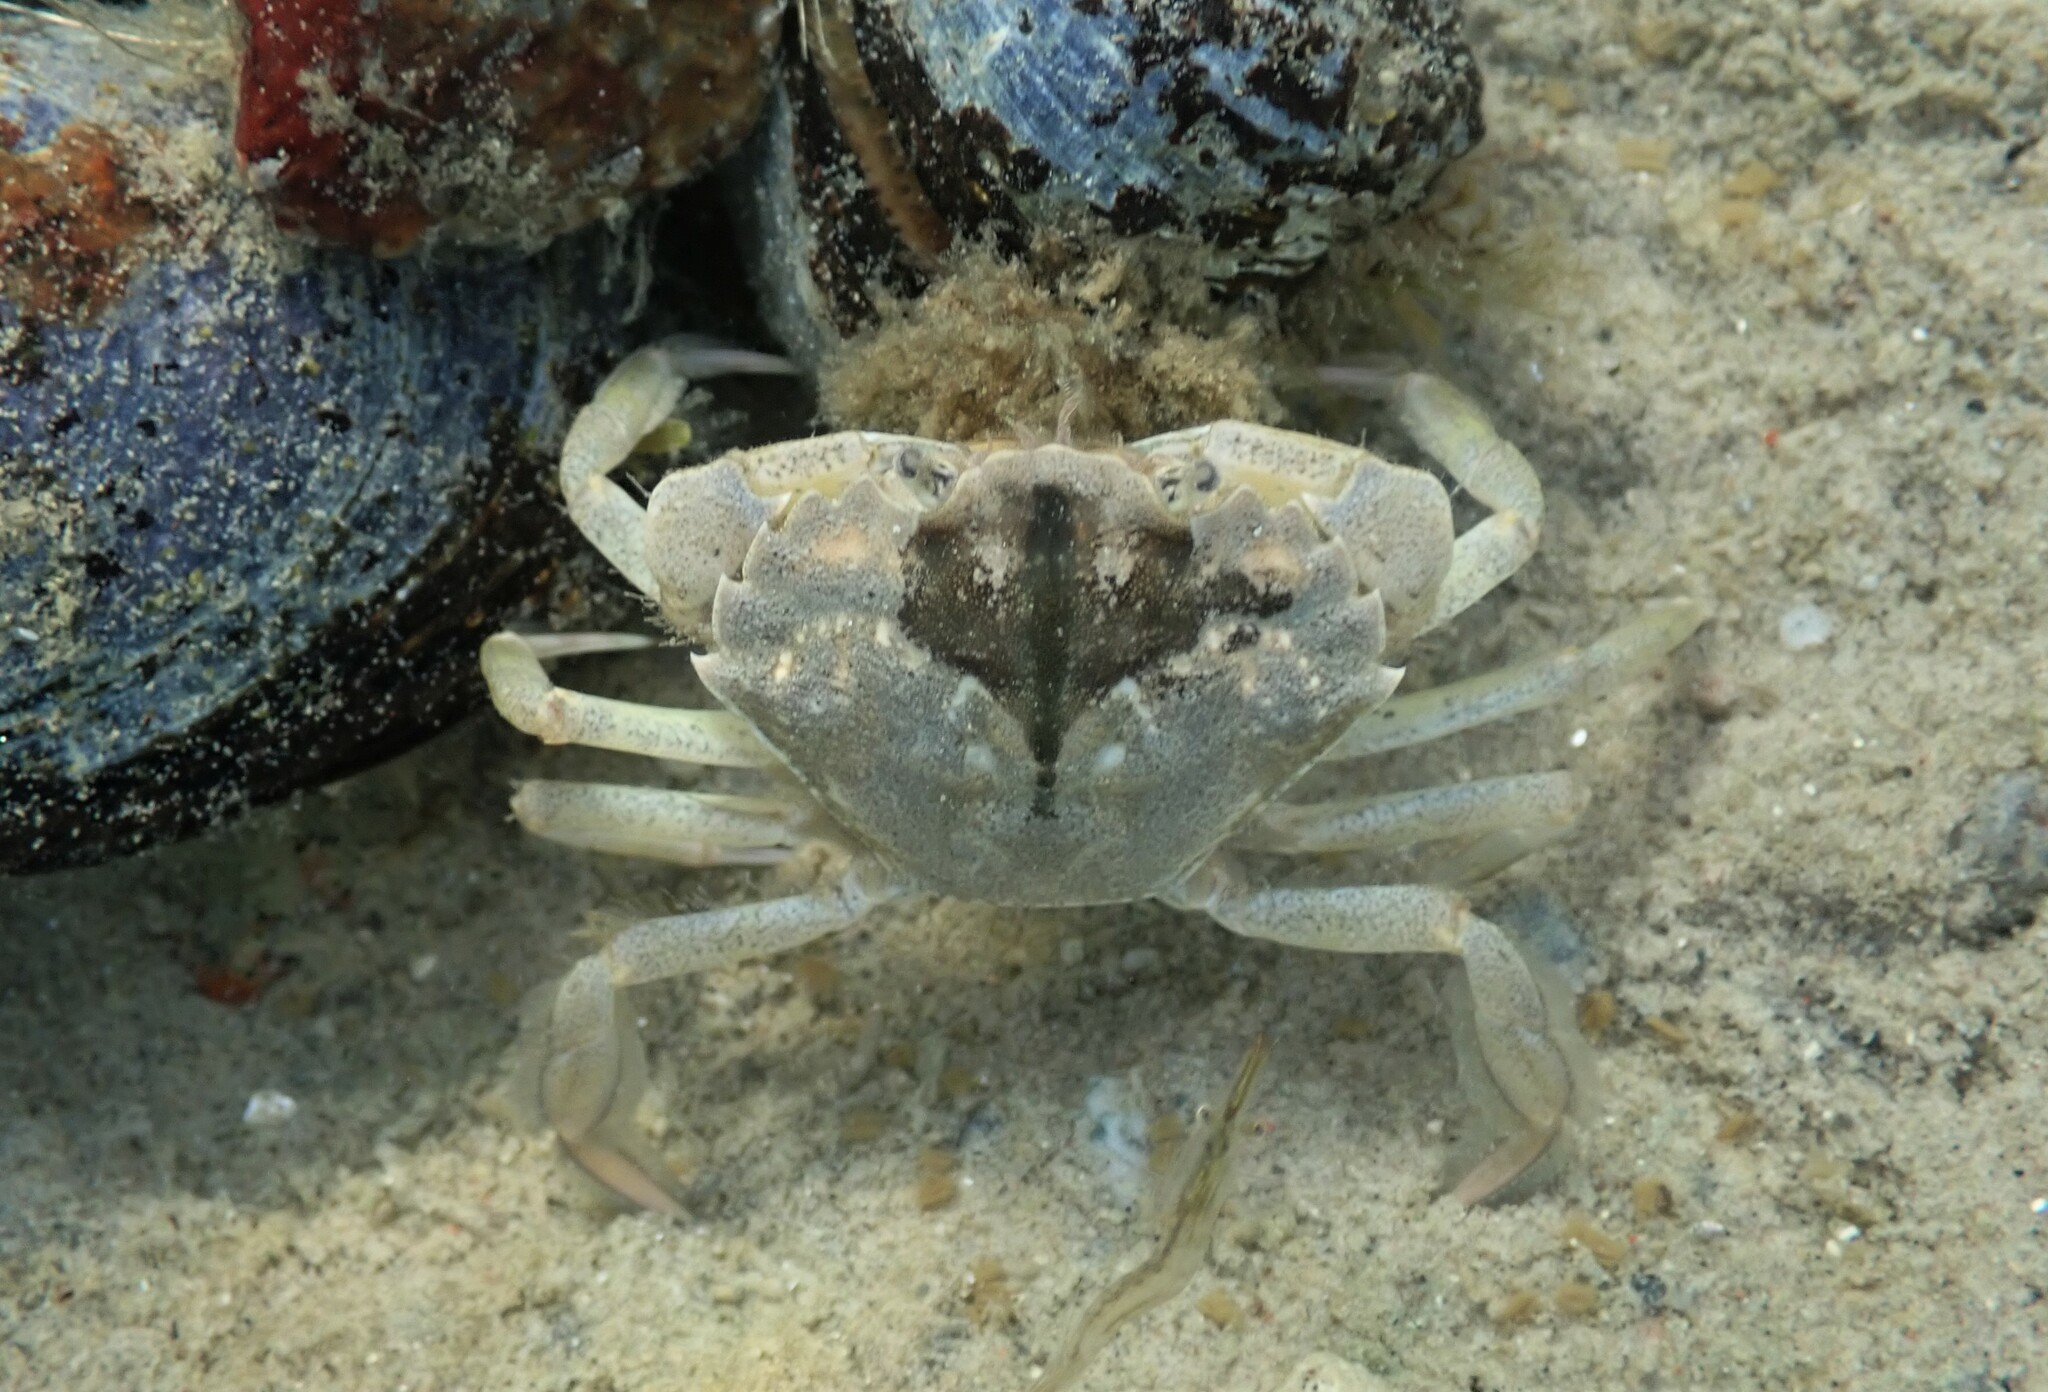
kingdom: Animalia
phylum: Arthropoda
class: Malacostraca
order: Decapoda
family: Carcinidae
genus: Carcinus
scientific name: Carcinus maenas
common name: European green crab
